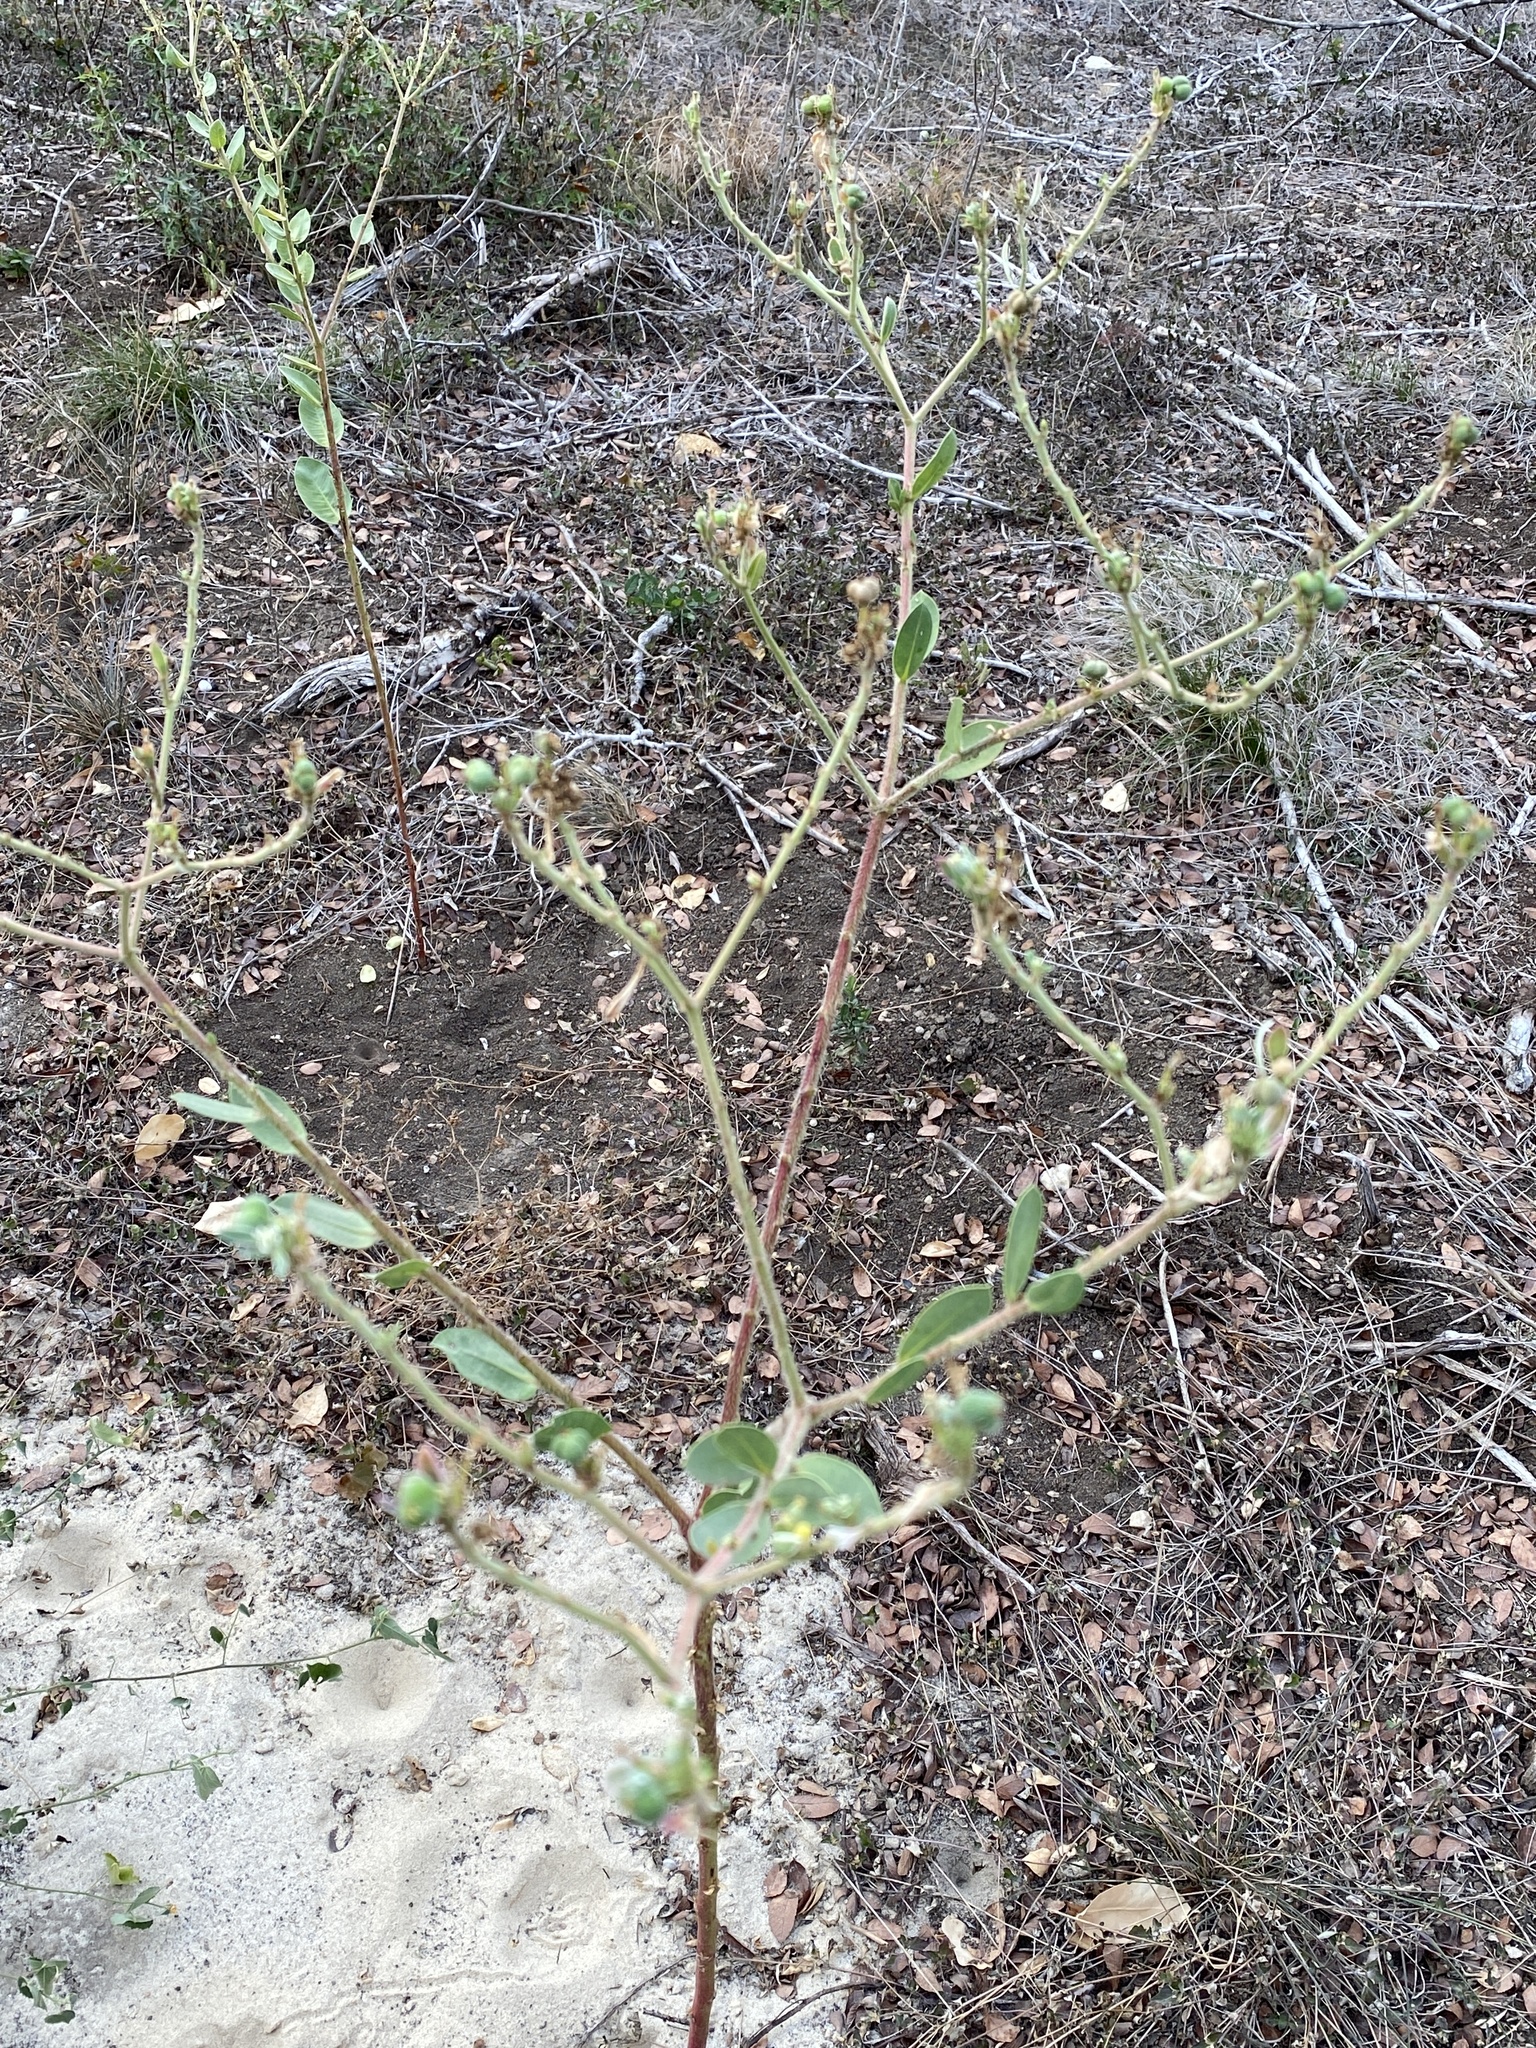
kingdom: Plantae
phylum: Tracheophyta
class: Magnoliopsida
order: Malpighiales
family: Euphorbiaceae
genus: Euphorbia
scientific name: Euphorbia marginata
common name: Ghostweed
